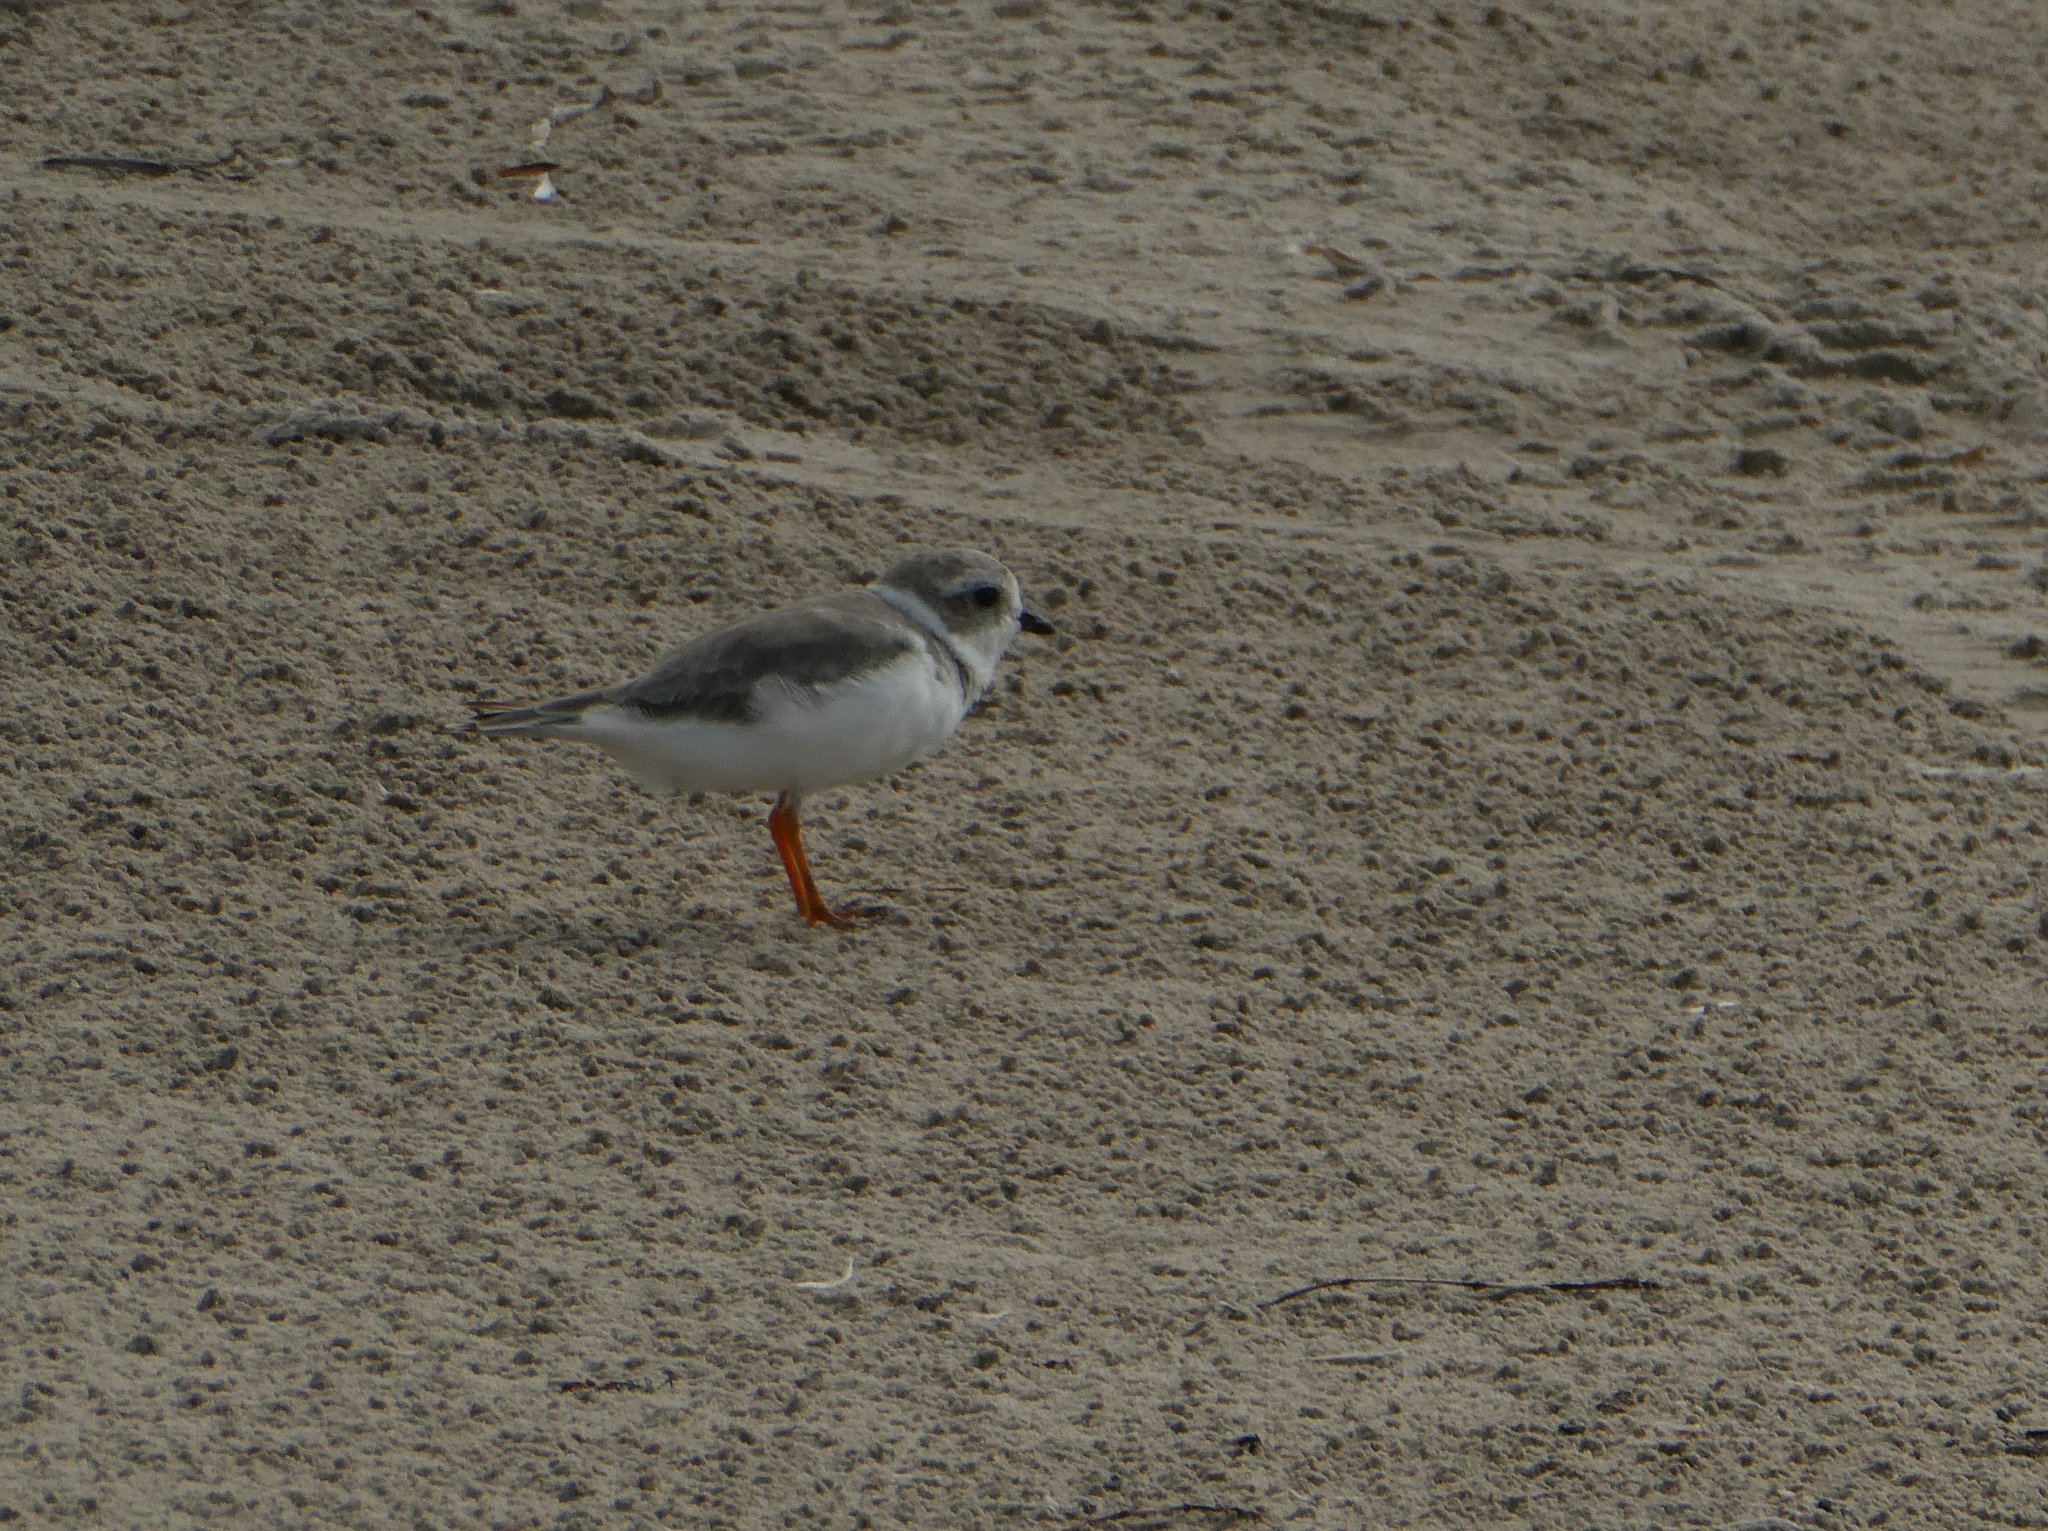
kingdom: Animalia
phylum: Chordata
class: Aves
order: Charadriiformes
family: Charadriidae
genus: Charadrius
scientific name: Charadrius melodus
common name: Piping plover
